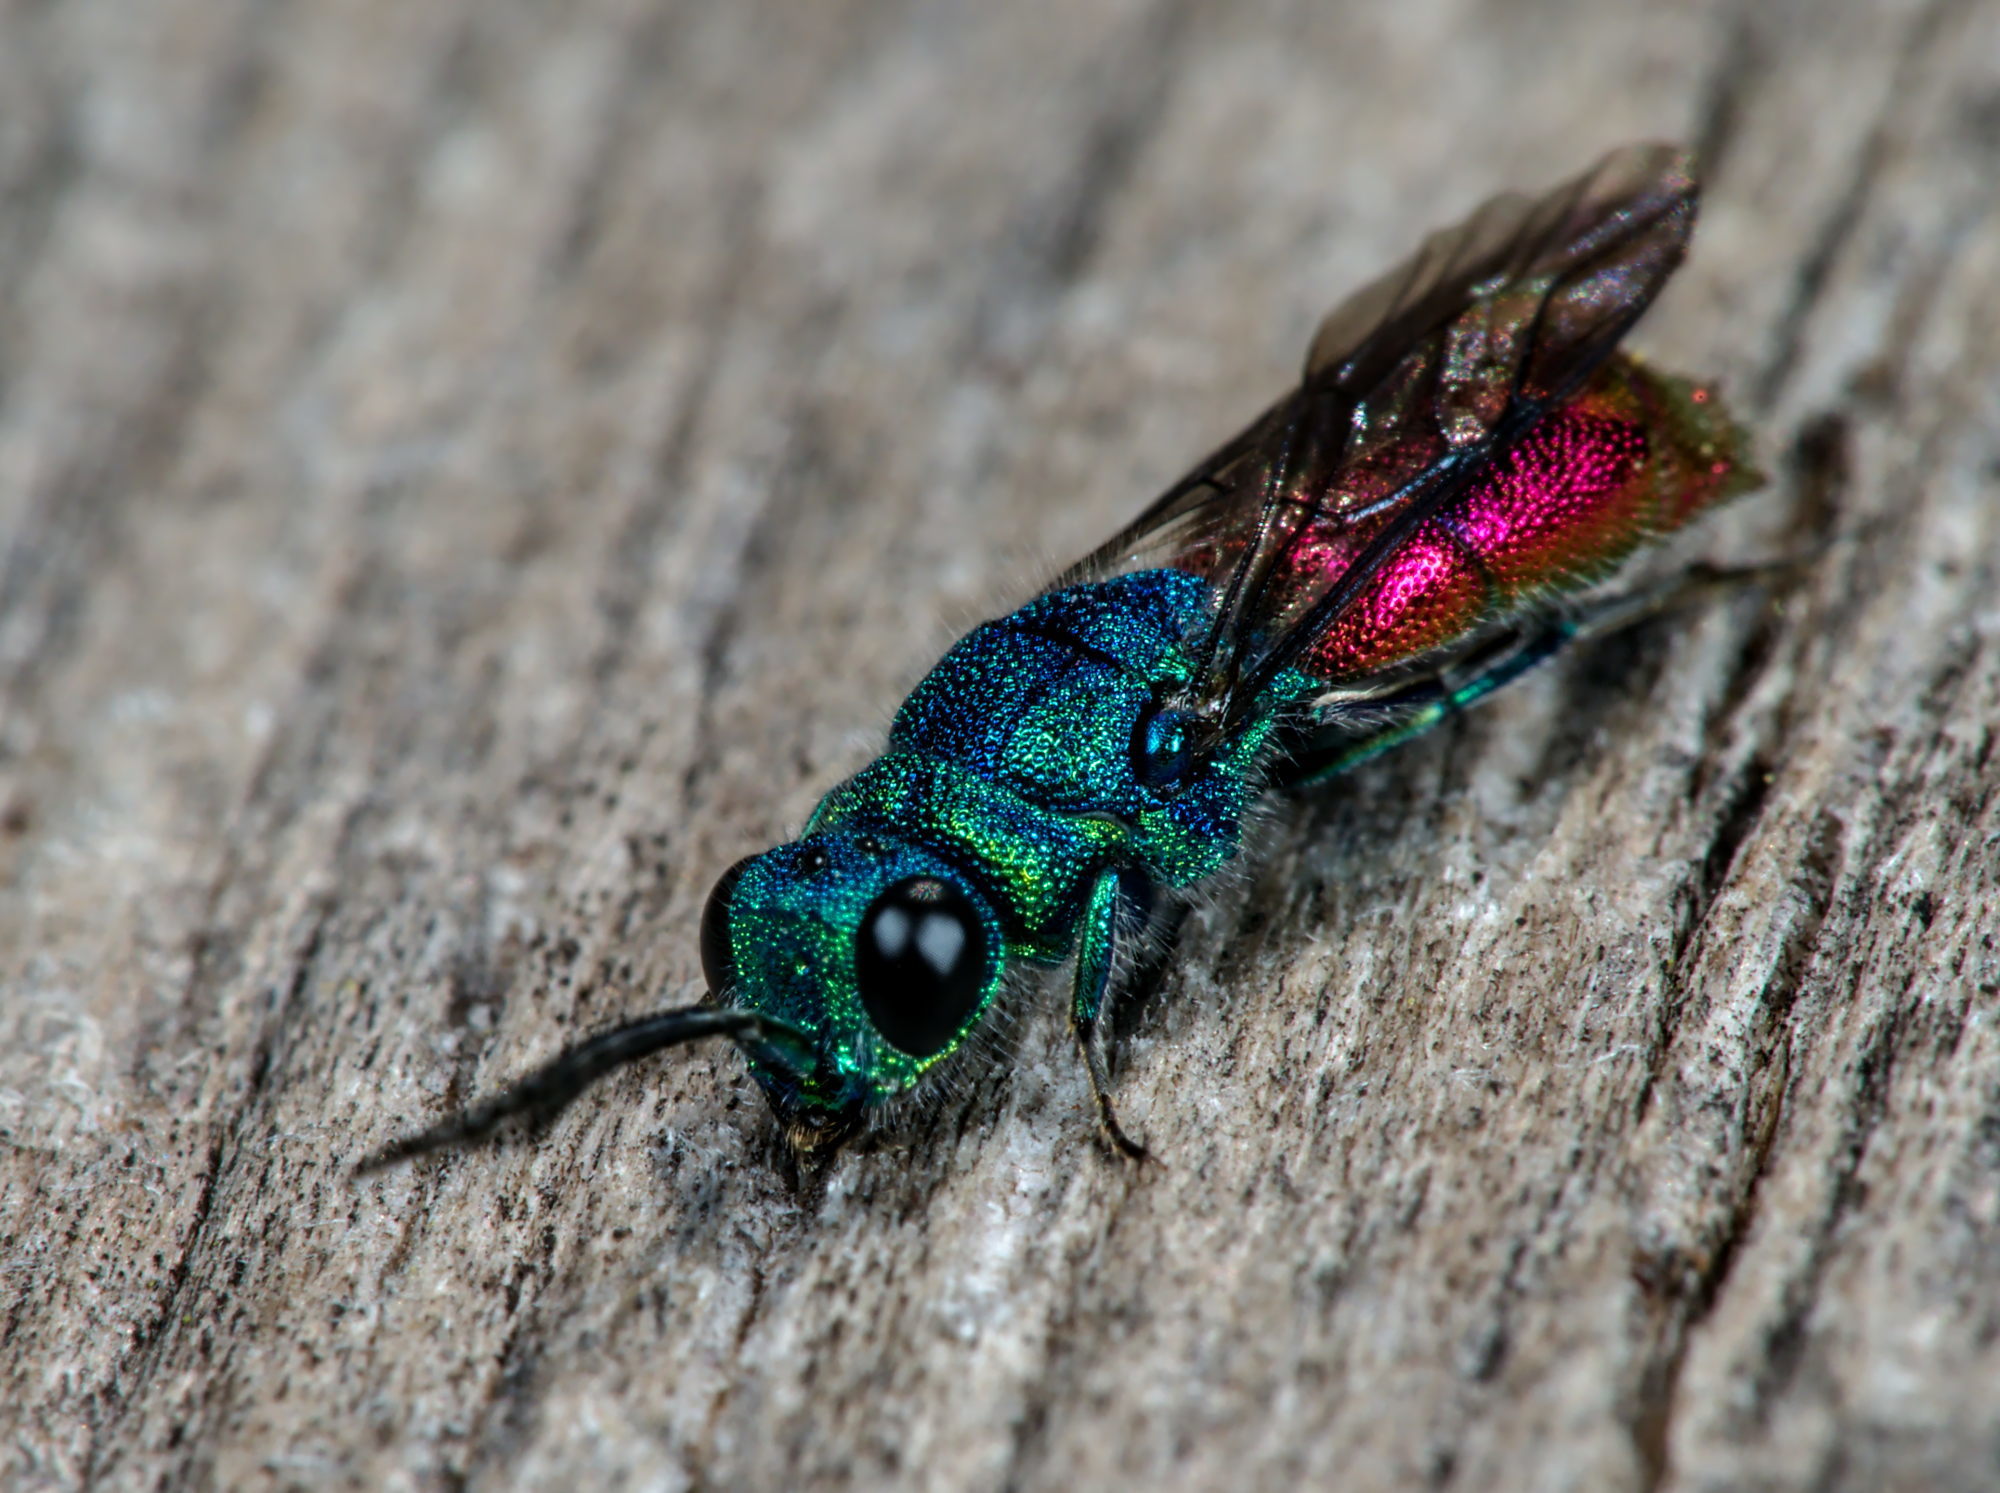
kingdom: Animalia
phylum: Arthropoda
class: Insecta
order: Hymenoptera
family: Chrysididae
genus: Chrysis
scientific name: Chrysis terminata
